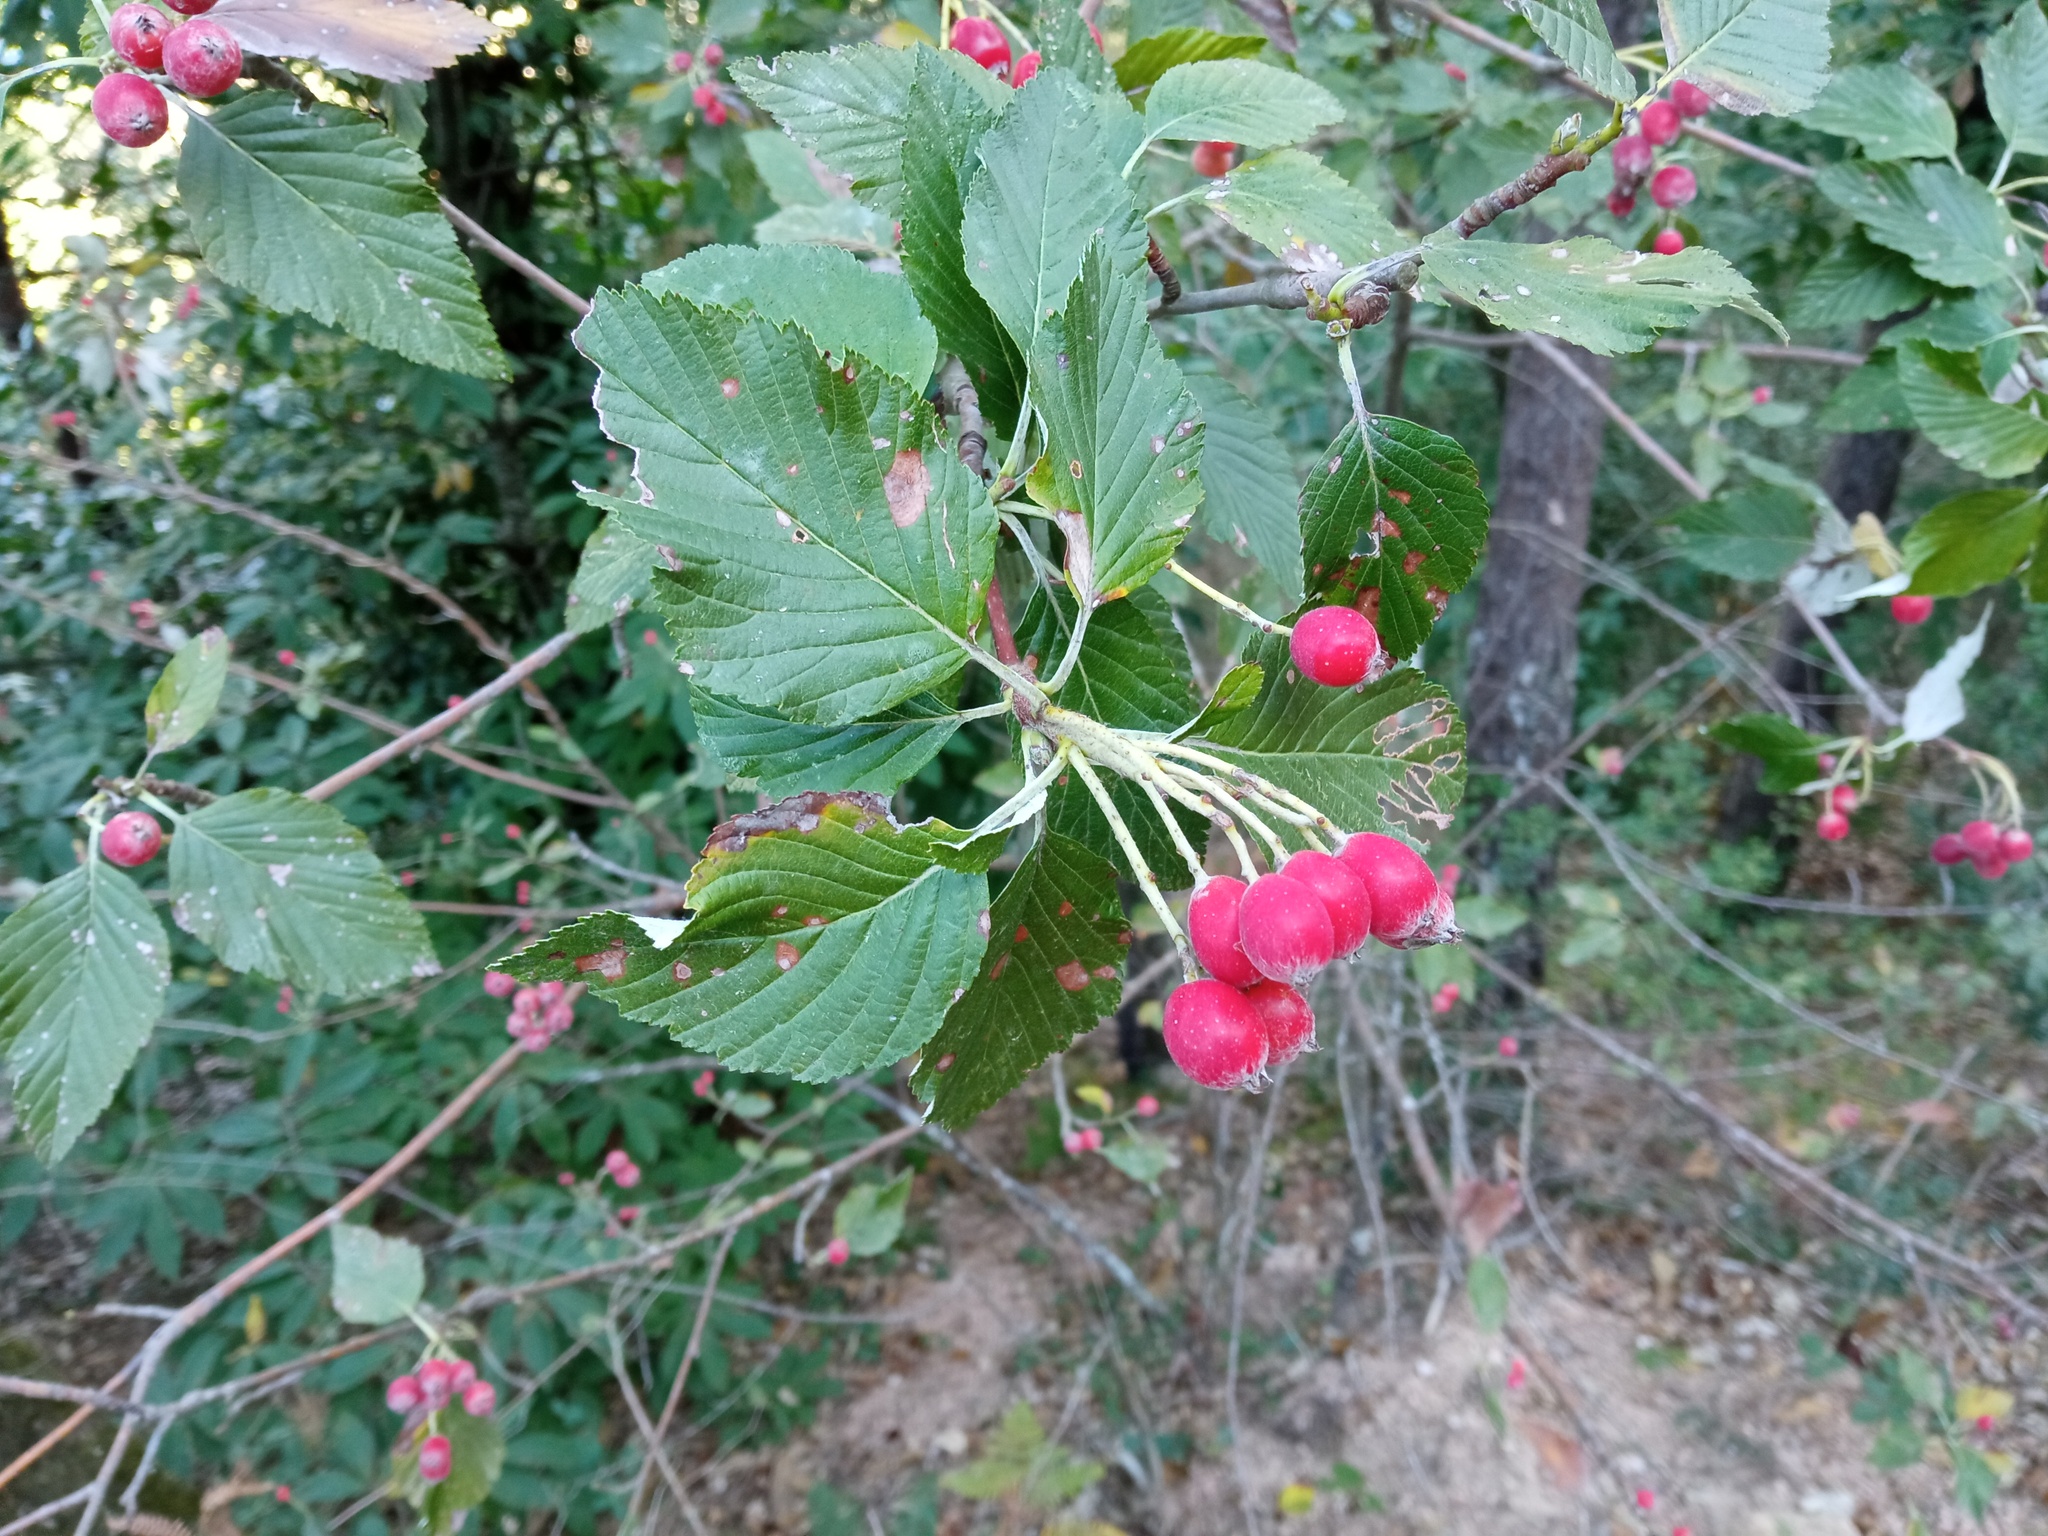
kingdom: Plantae
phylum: Tracheophyta
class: Magnoliopsida
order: Rosales
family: Rosaceae
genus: Aria
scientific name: Aria edulis
